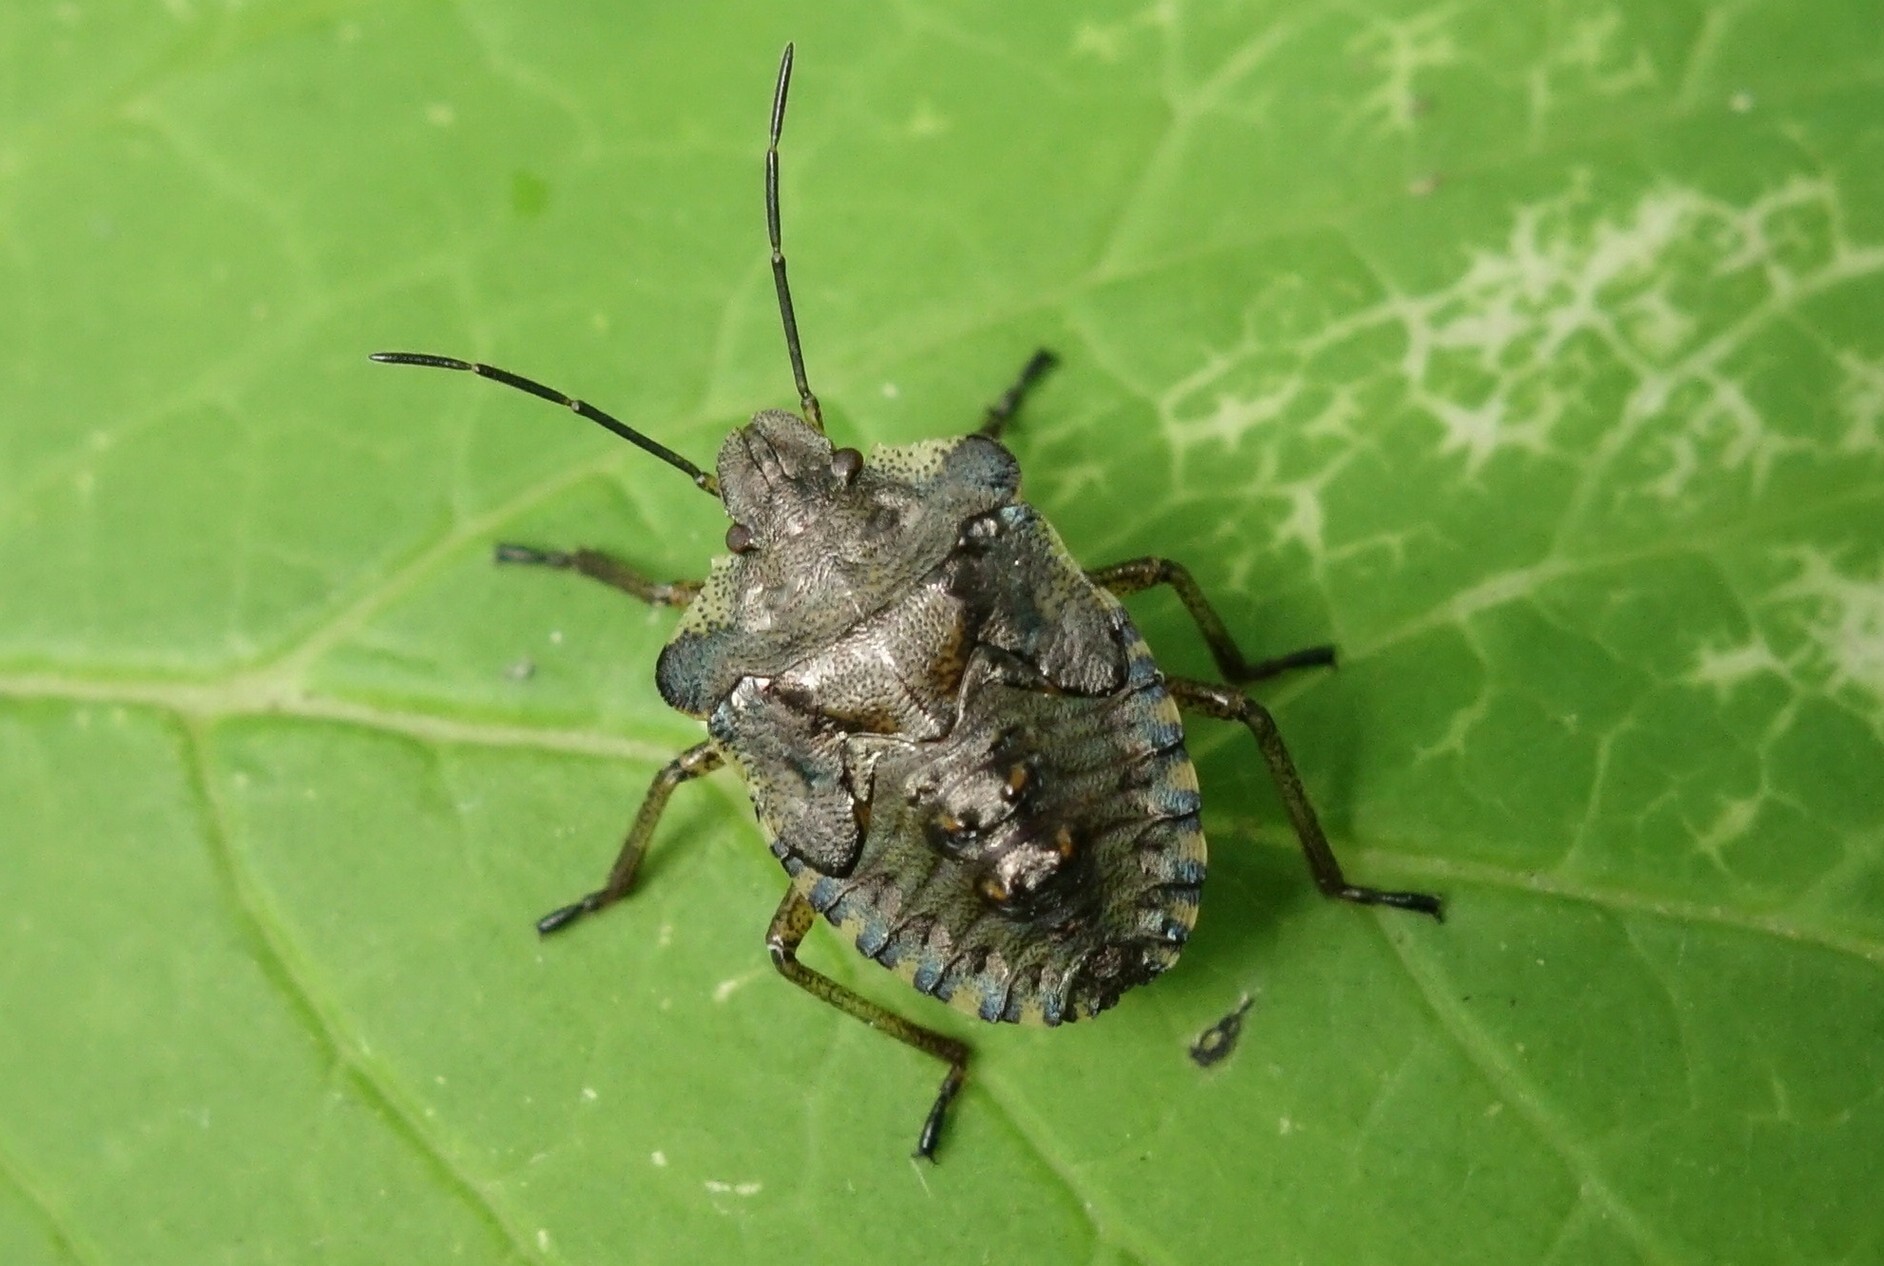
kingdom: Animalia
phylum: Arthropoda
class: Insecta
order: Hemiptera
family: Pentatomidae
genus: Pentatoma
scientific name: Pentatoma rufipes
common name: Forest bug
